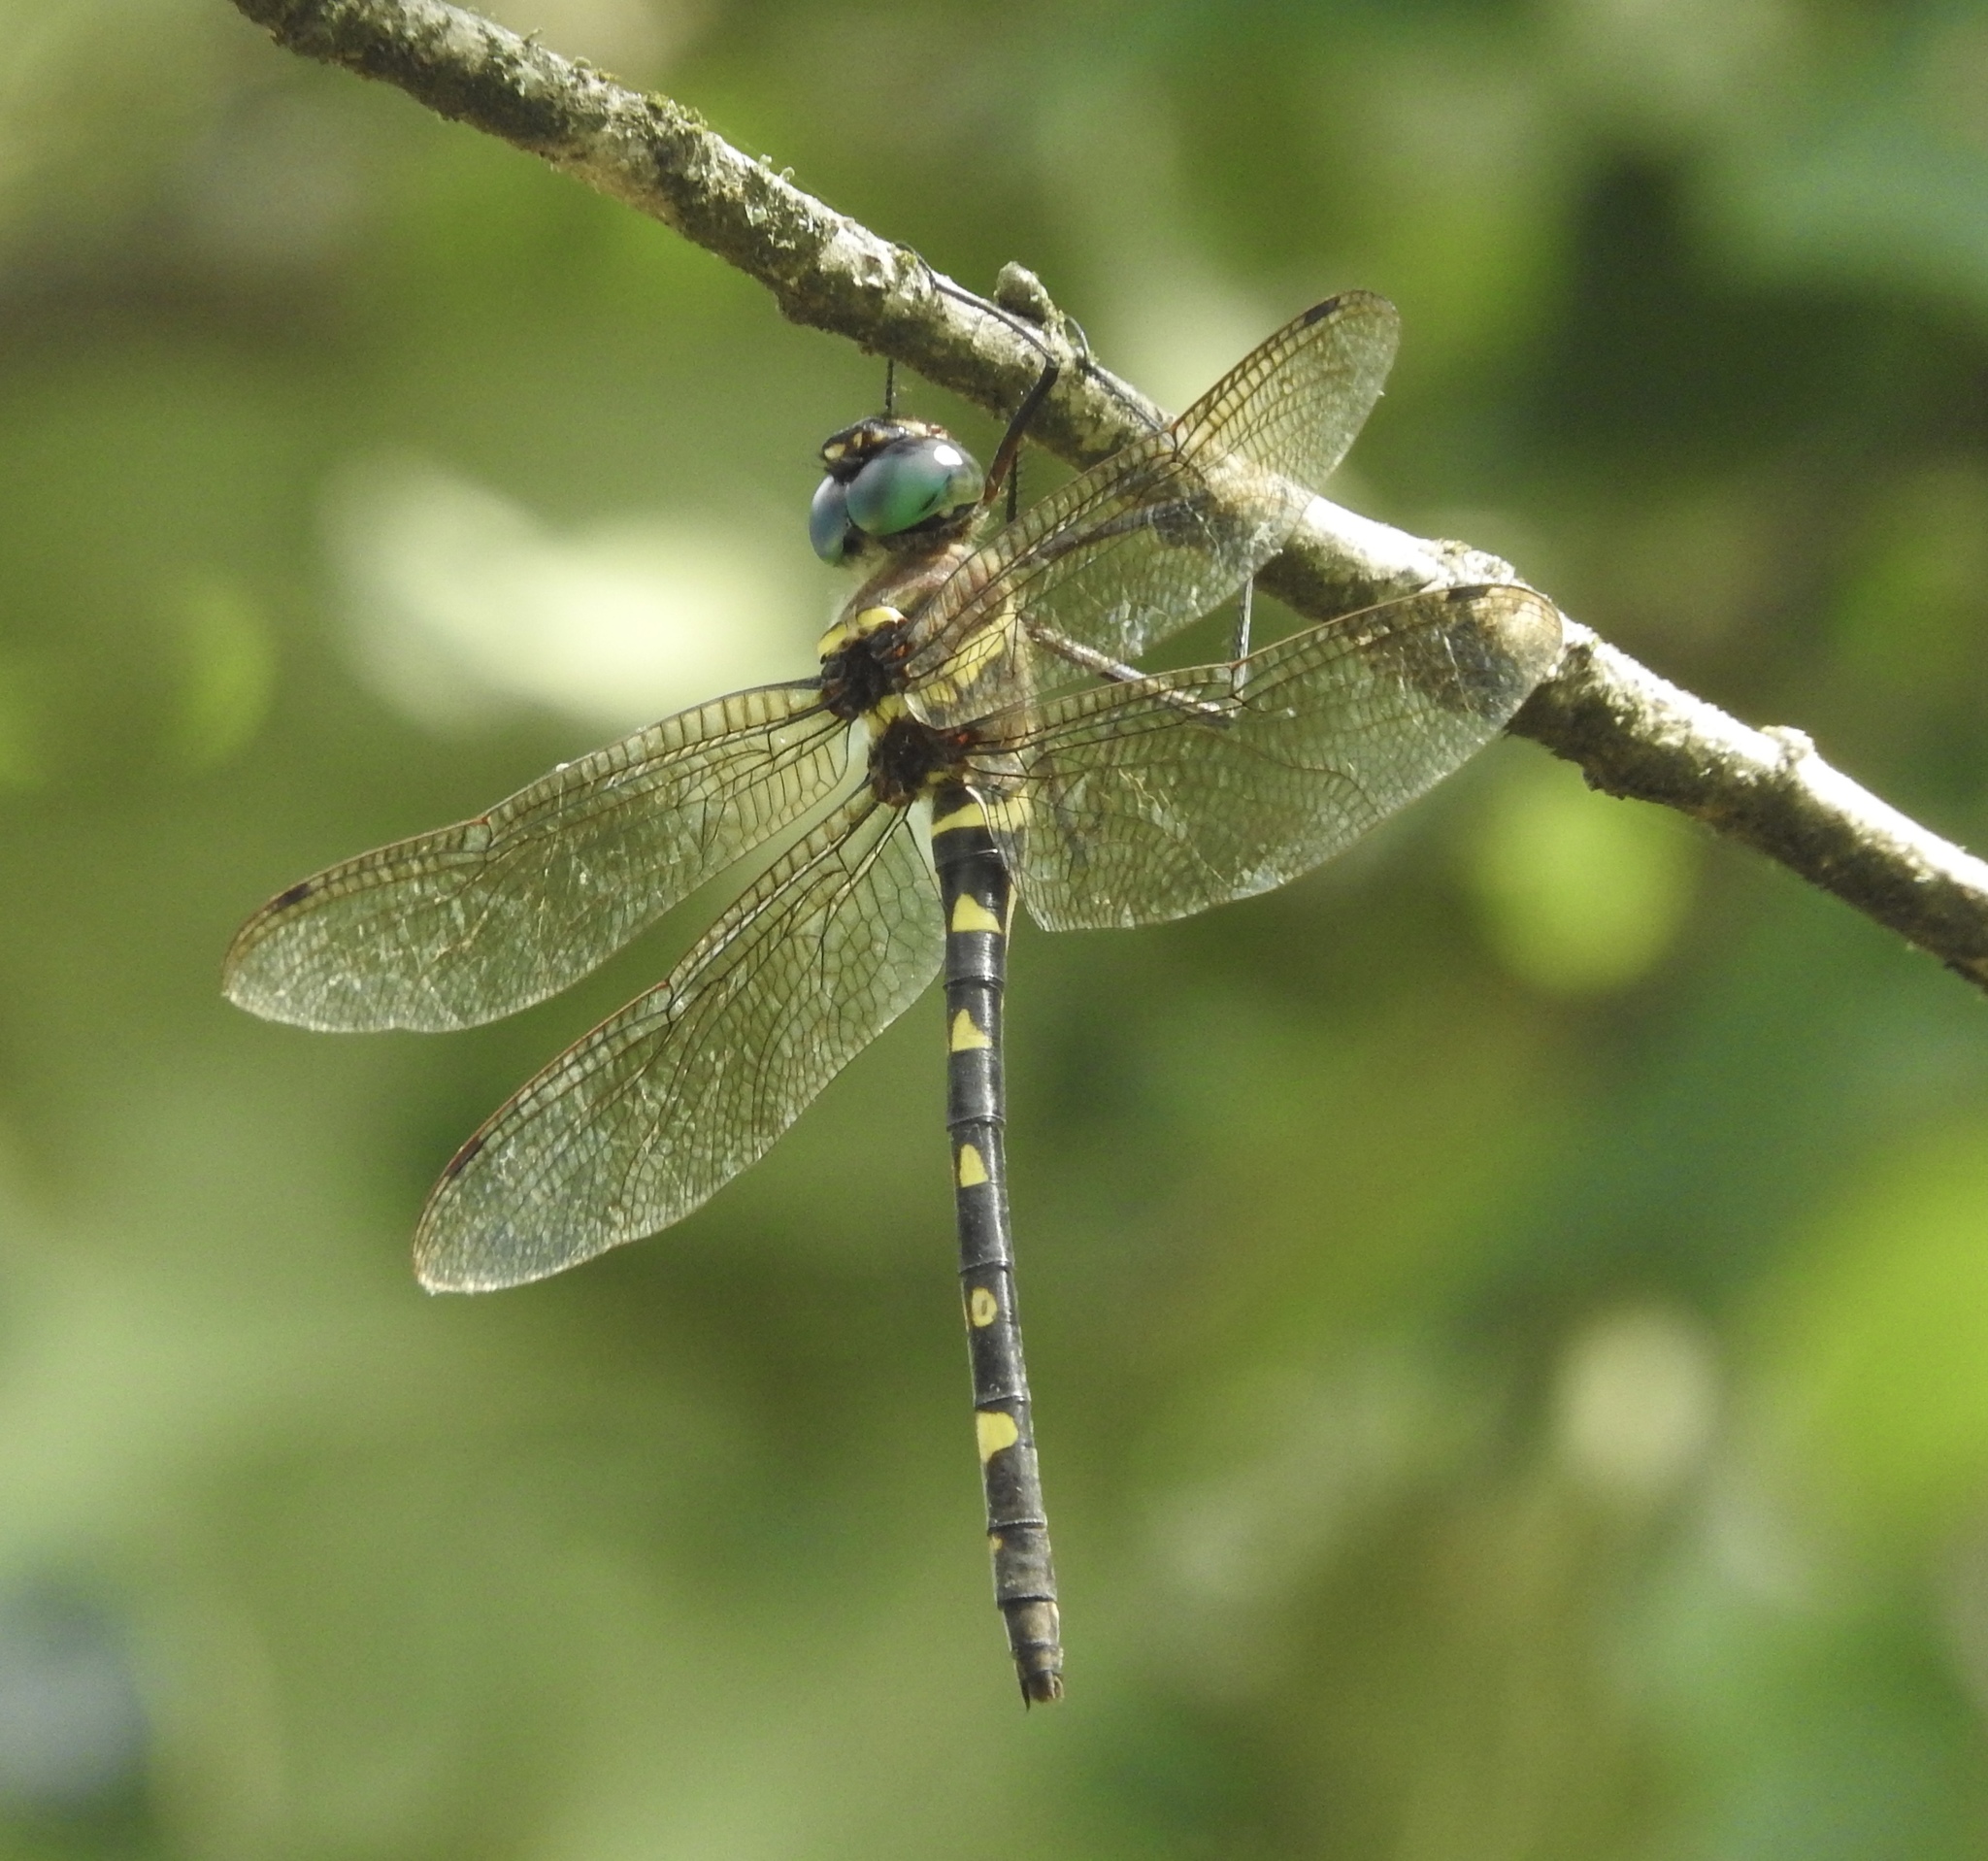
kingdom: Animalia
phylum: Arthropoda
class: Insecta
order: Odonata
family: Macromiidae
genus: Macromia
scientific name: Macromia illinoiensis
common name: Swift river cruiser
